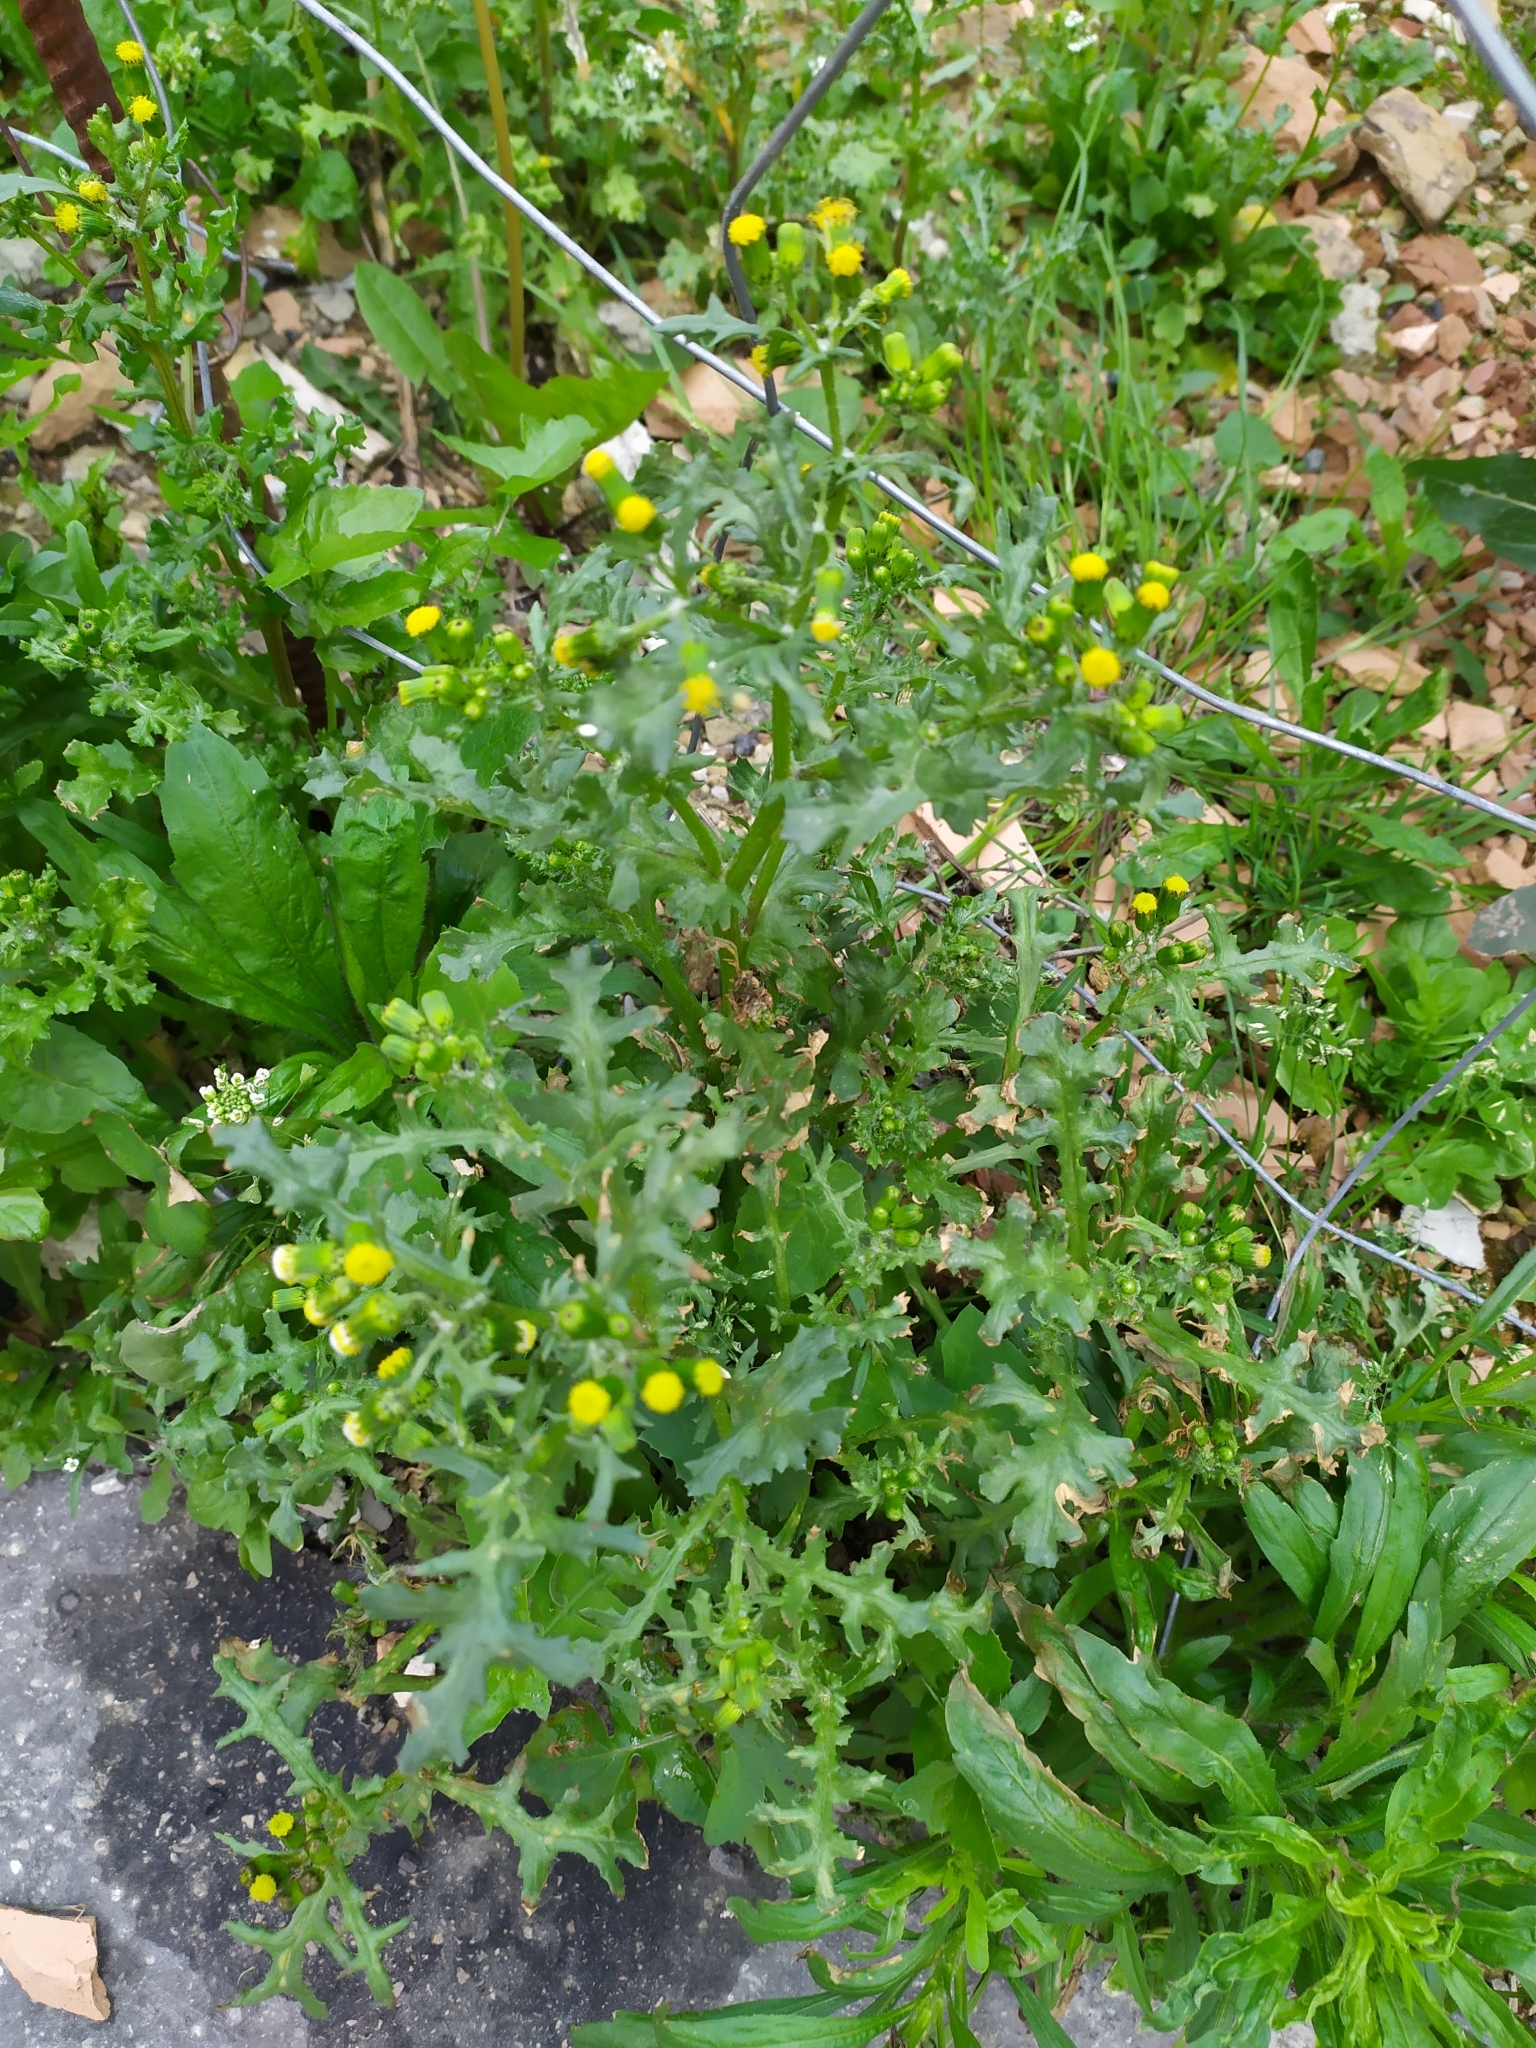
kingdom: Plantae
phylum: Tracheophyta
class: Magnoliopsida
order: Asterales
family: Asteraceae
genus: Senecio
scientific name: Senecio vulgaris
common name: Old-man-in-the-spring
